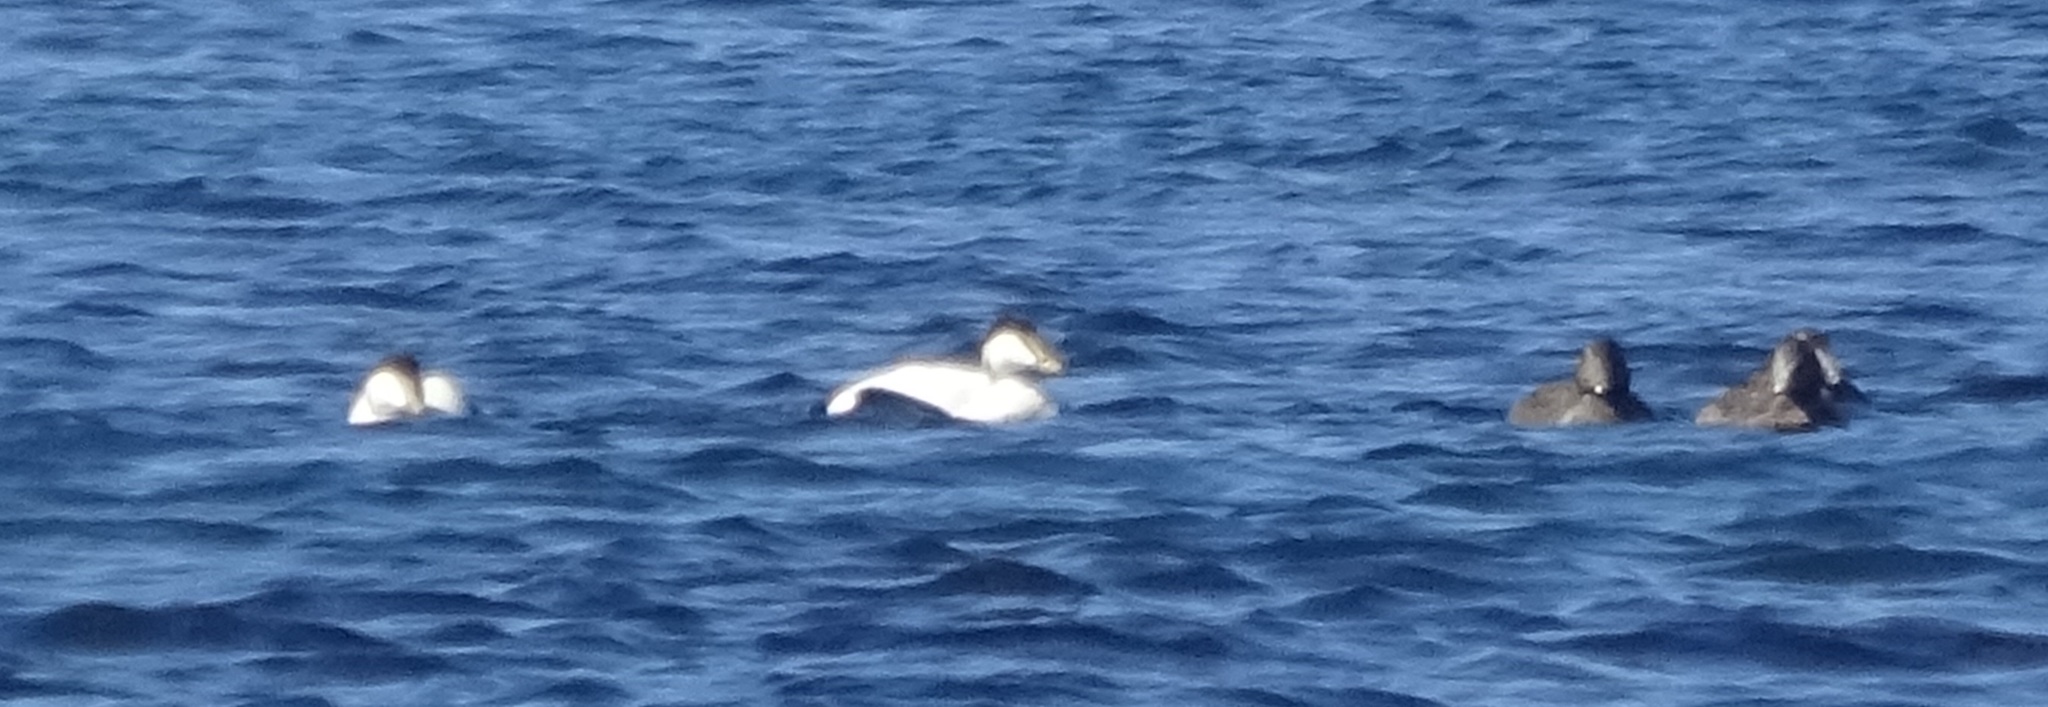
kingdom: Animalia
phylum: Chordata
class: Aves
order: Anseriformes
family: Anatidae
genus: Somateria
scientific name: Somateria mollissima
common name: Common eider
